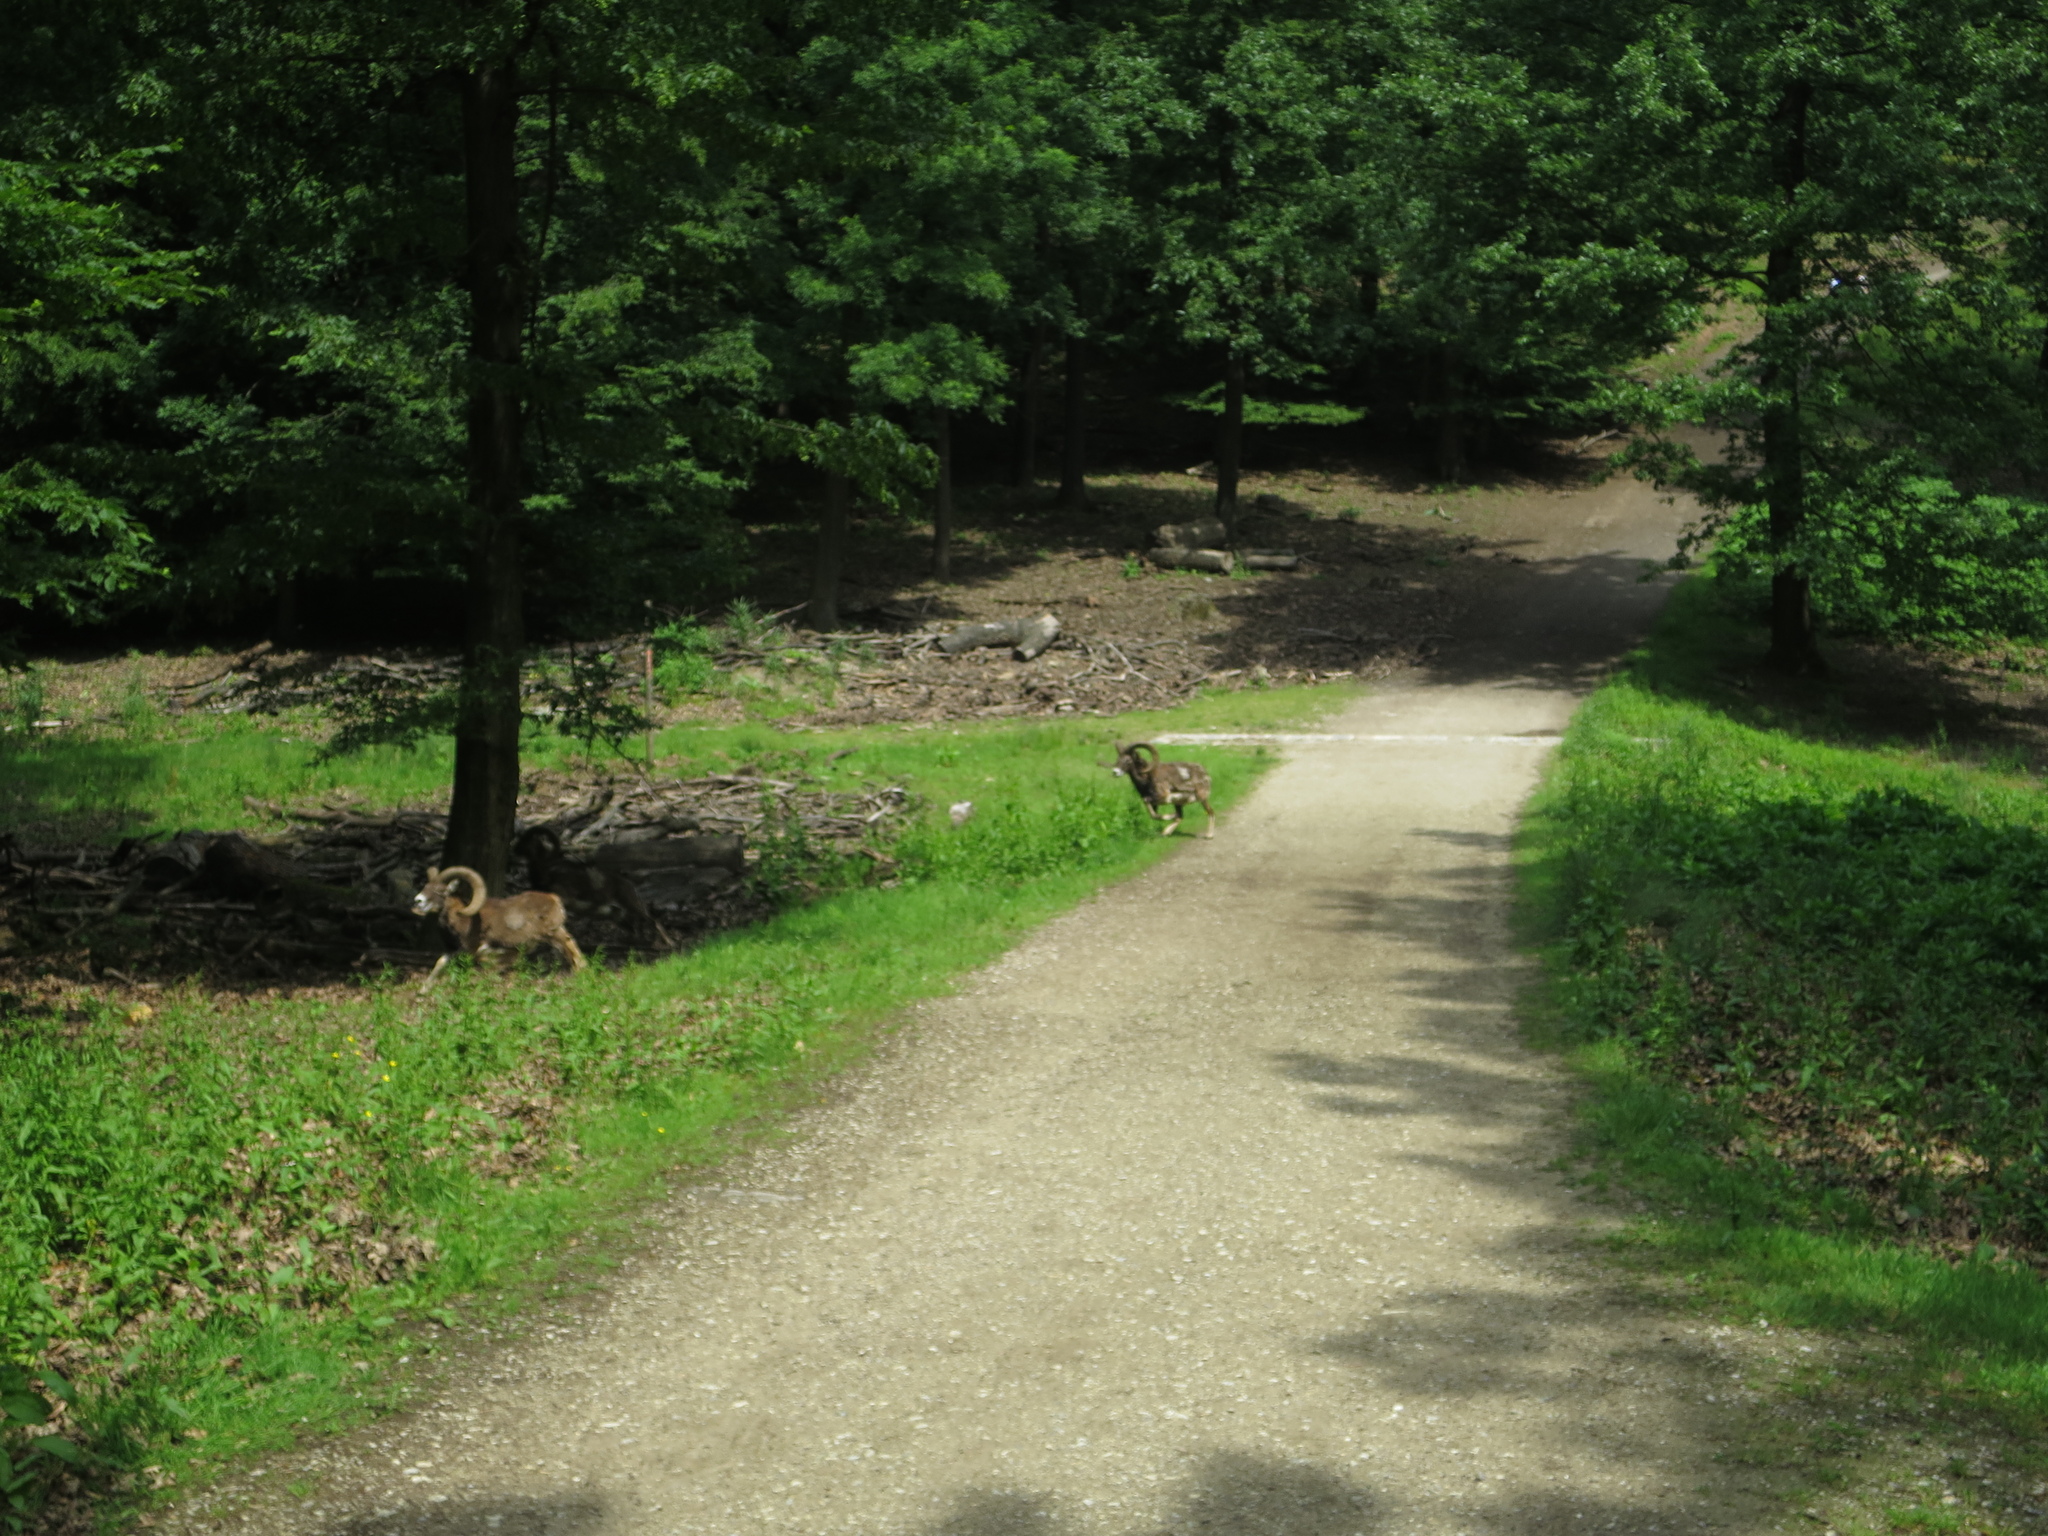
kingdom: Animalia
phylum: Chordata
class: Mammalia
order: Artiodactyla
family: Bovidae
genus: Ovis
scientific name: Ovis aries
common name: Domestic sheep
